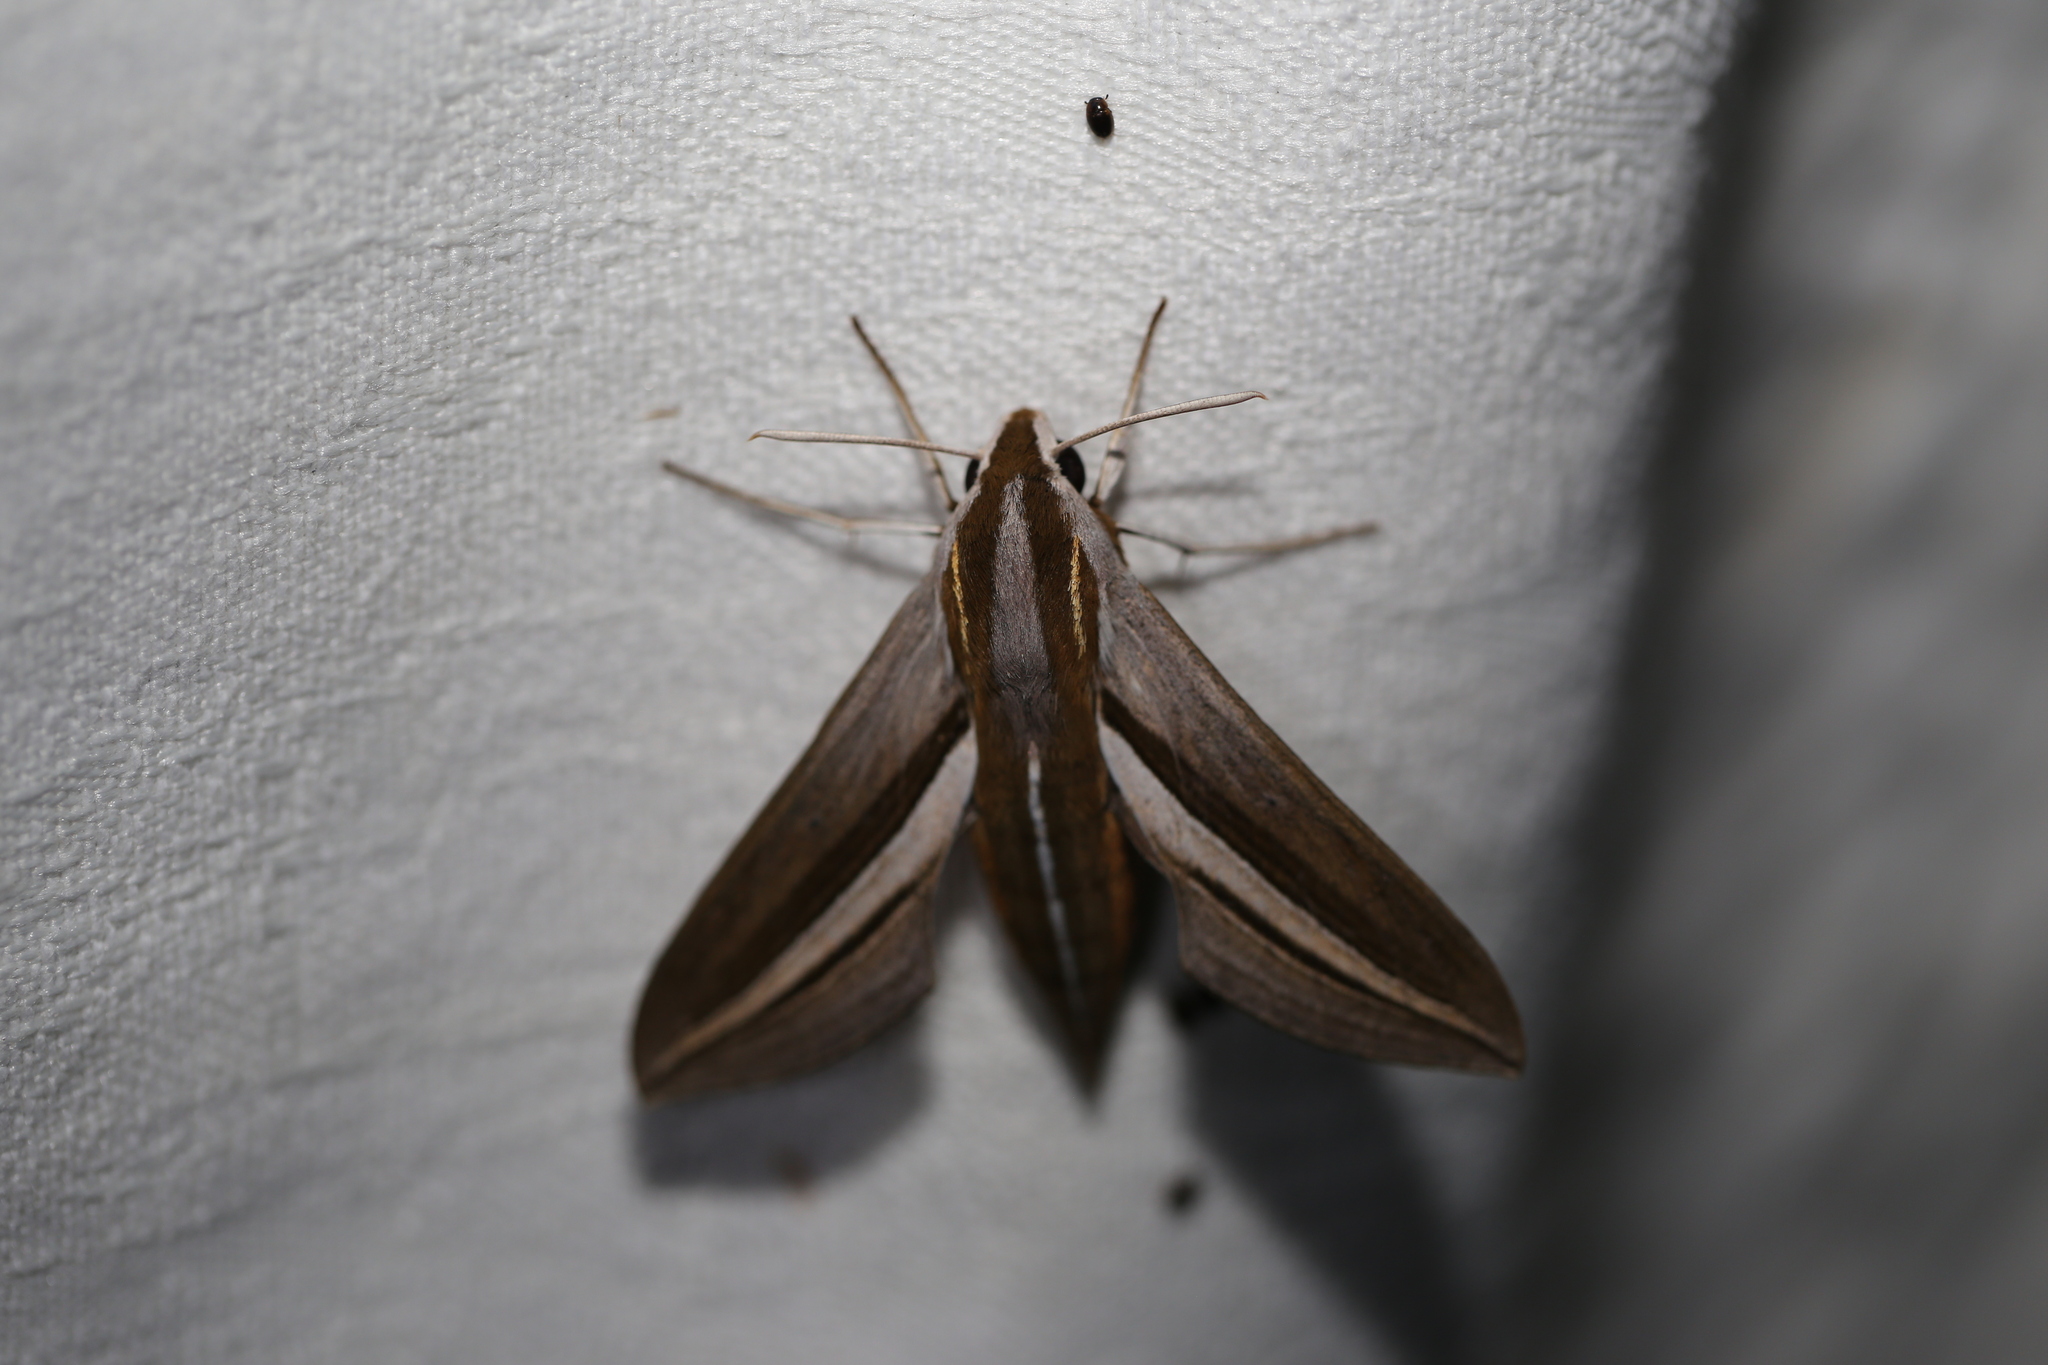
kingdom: Animalia
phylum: Arthropoda
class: Insecta
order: Lepidoptera
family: Sphingidae
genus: Theretra
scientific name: Theretra oldenlandiae
